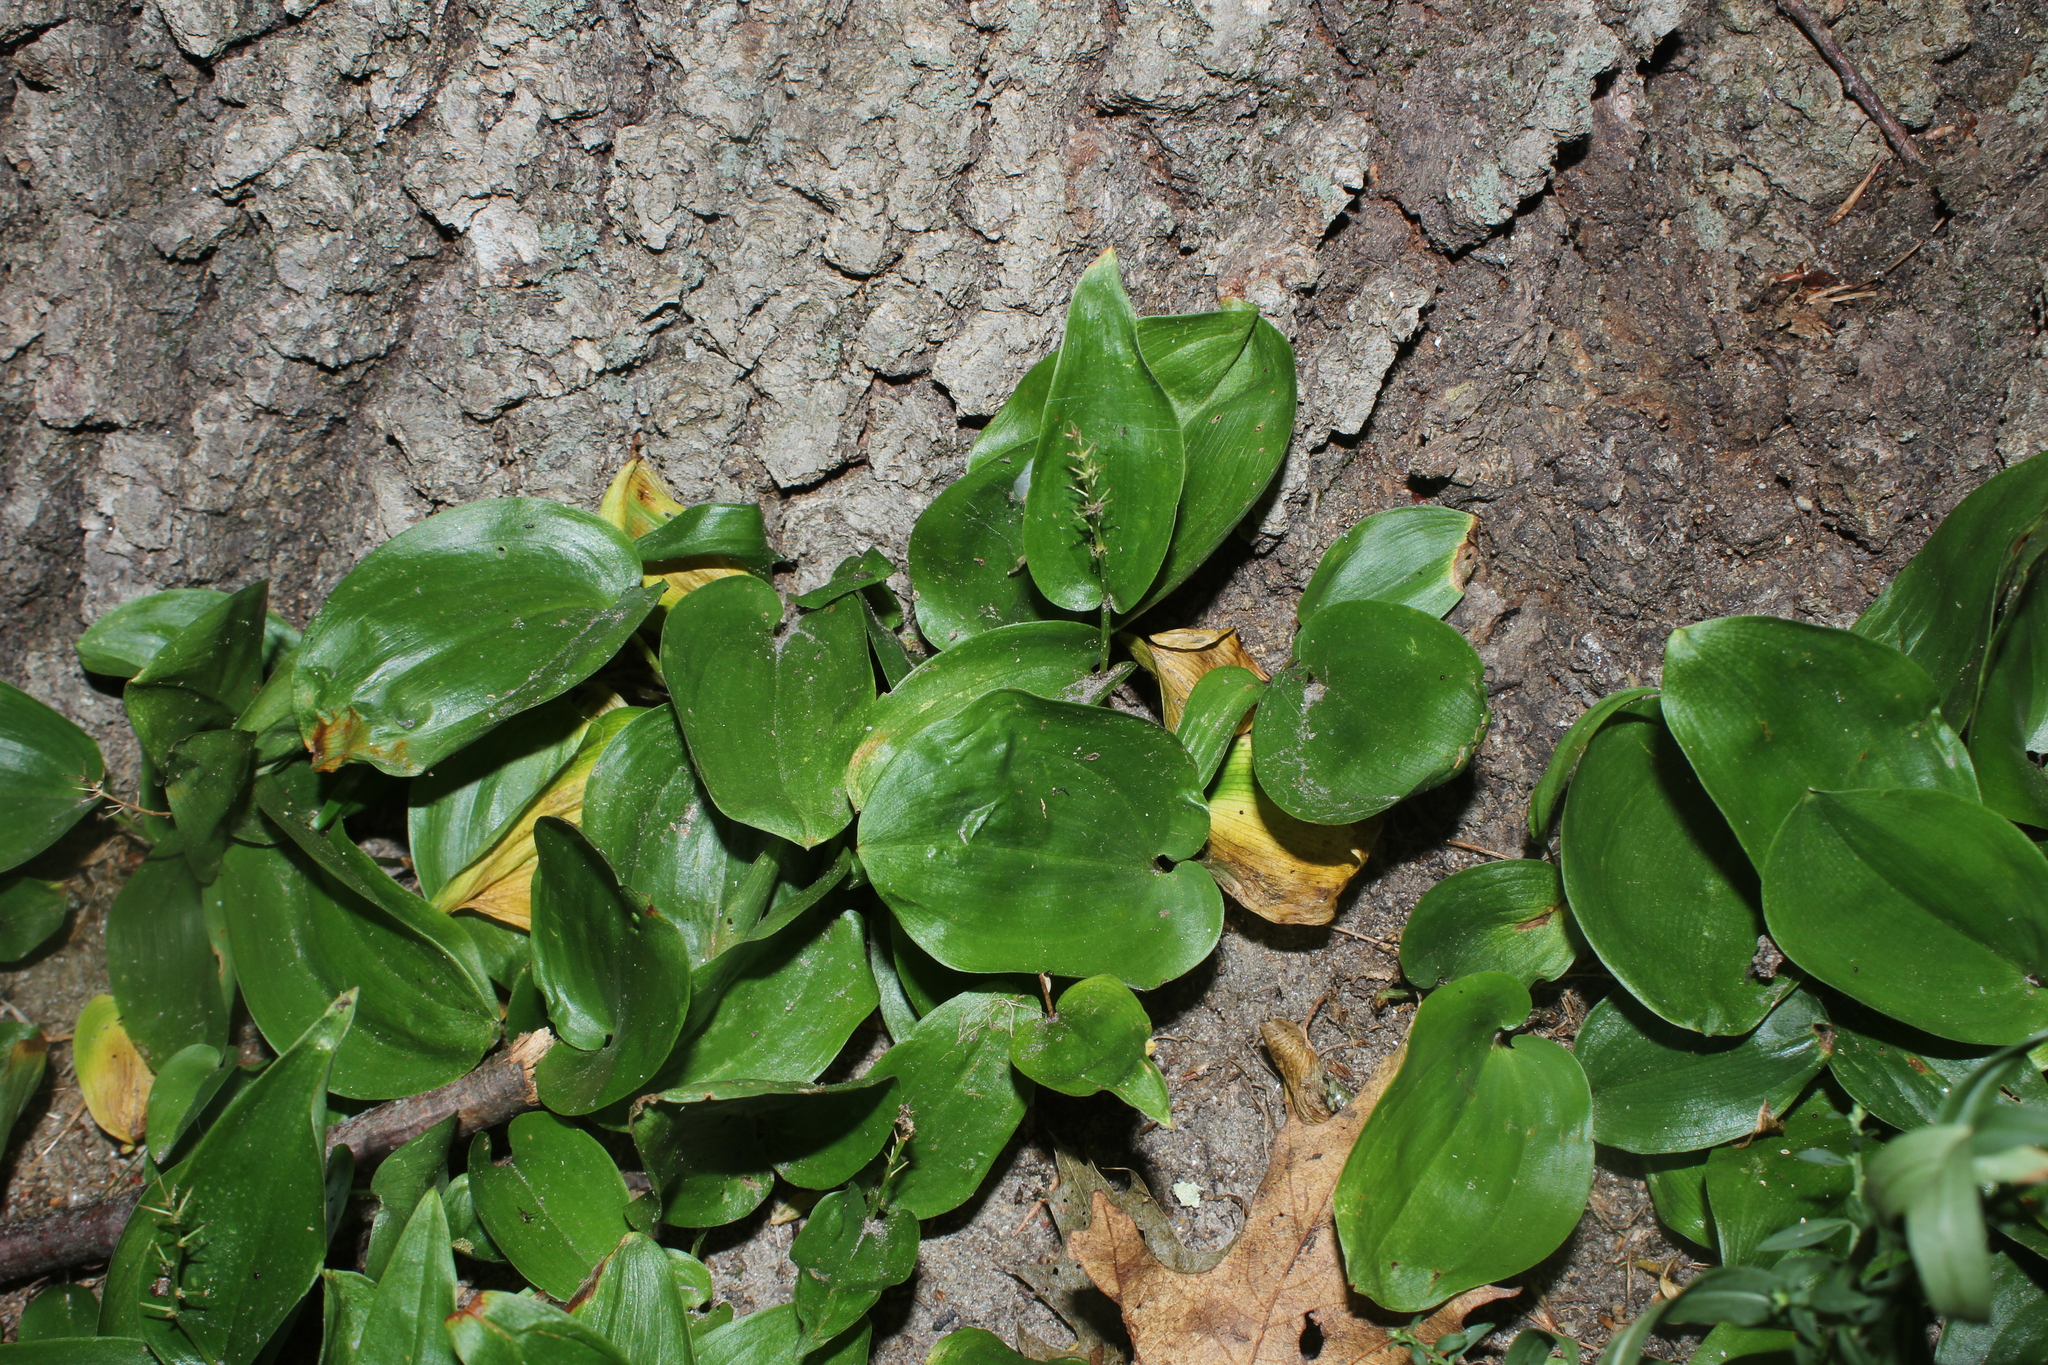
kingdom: Plantae
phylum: Tracheophyta
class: Liliopsida
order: Asparagales
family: Asparagaceae
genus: Maianthemum
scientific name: Maianthemum canadense
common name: False lily-of-the-valley
